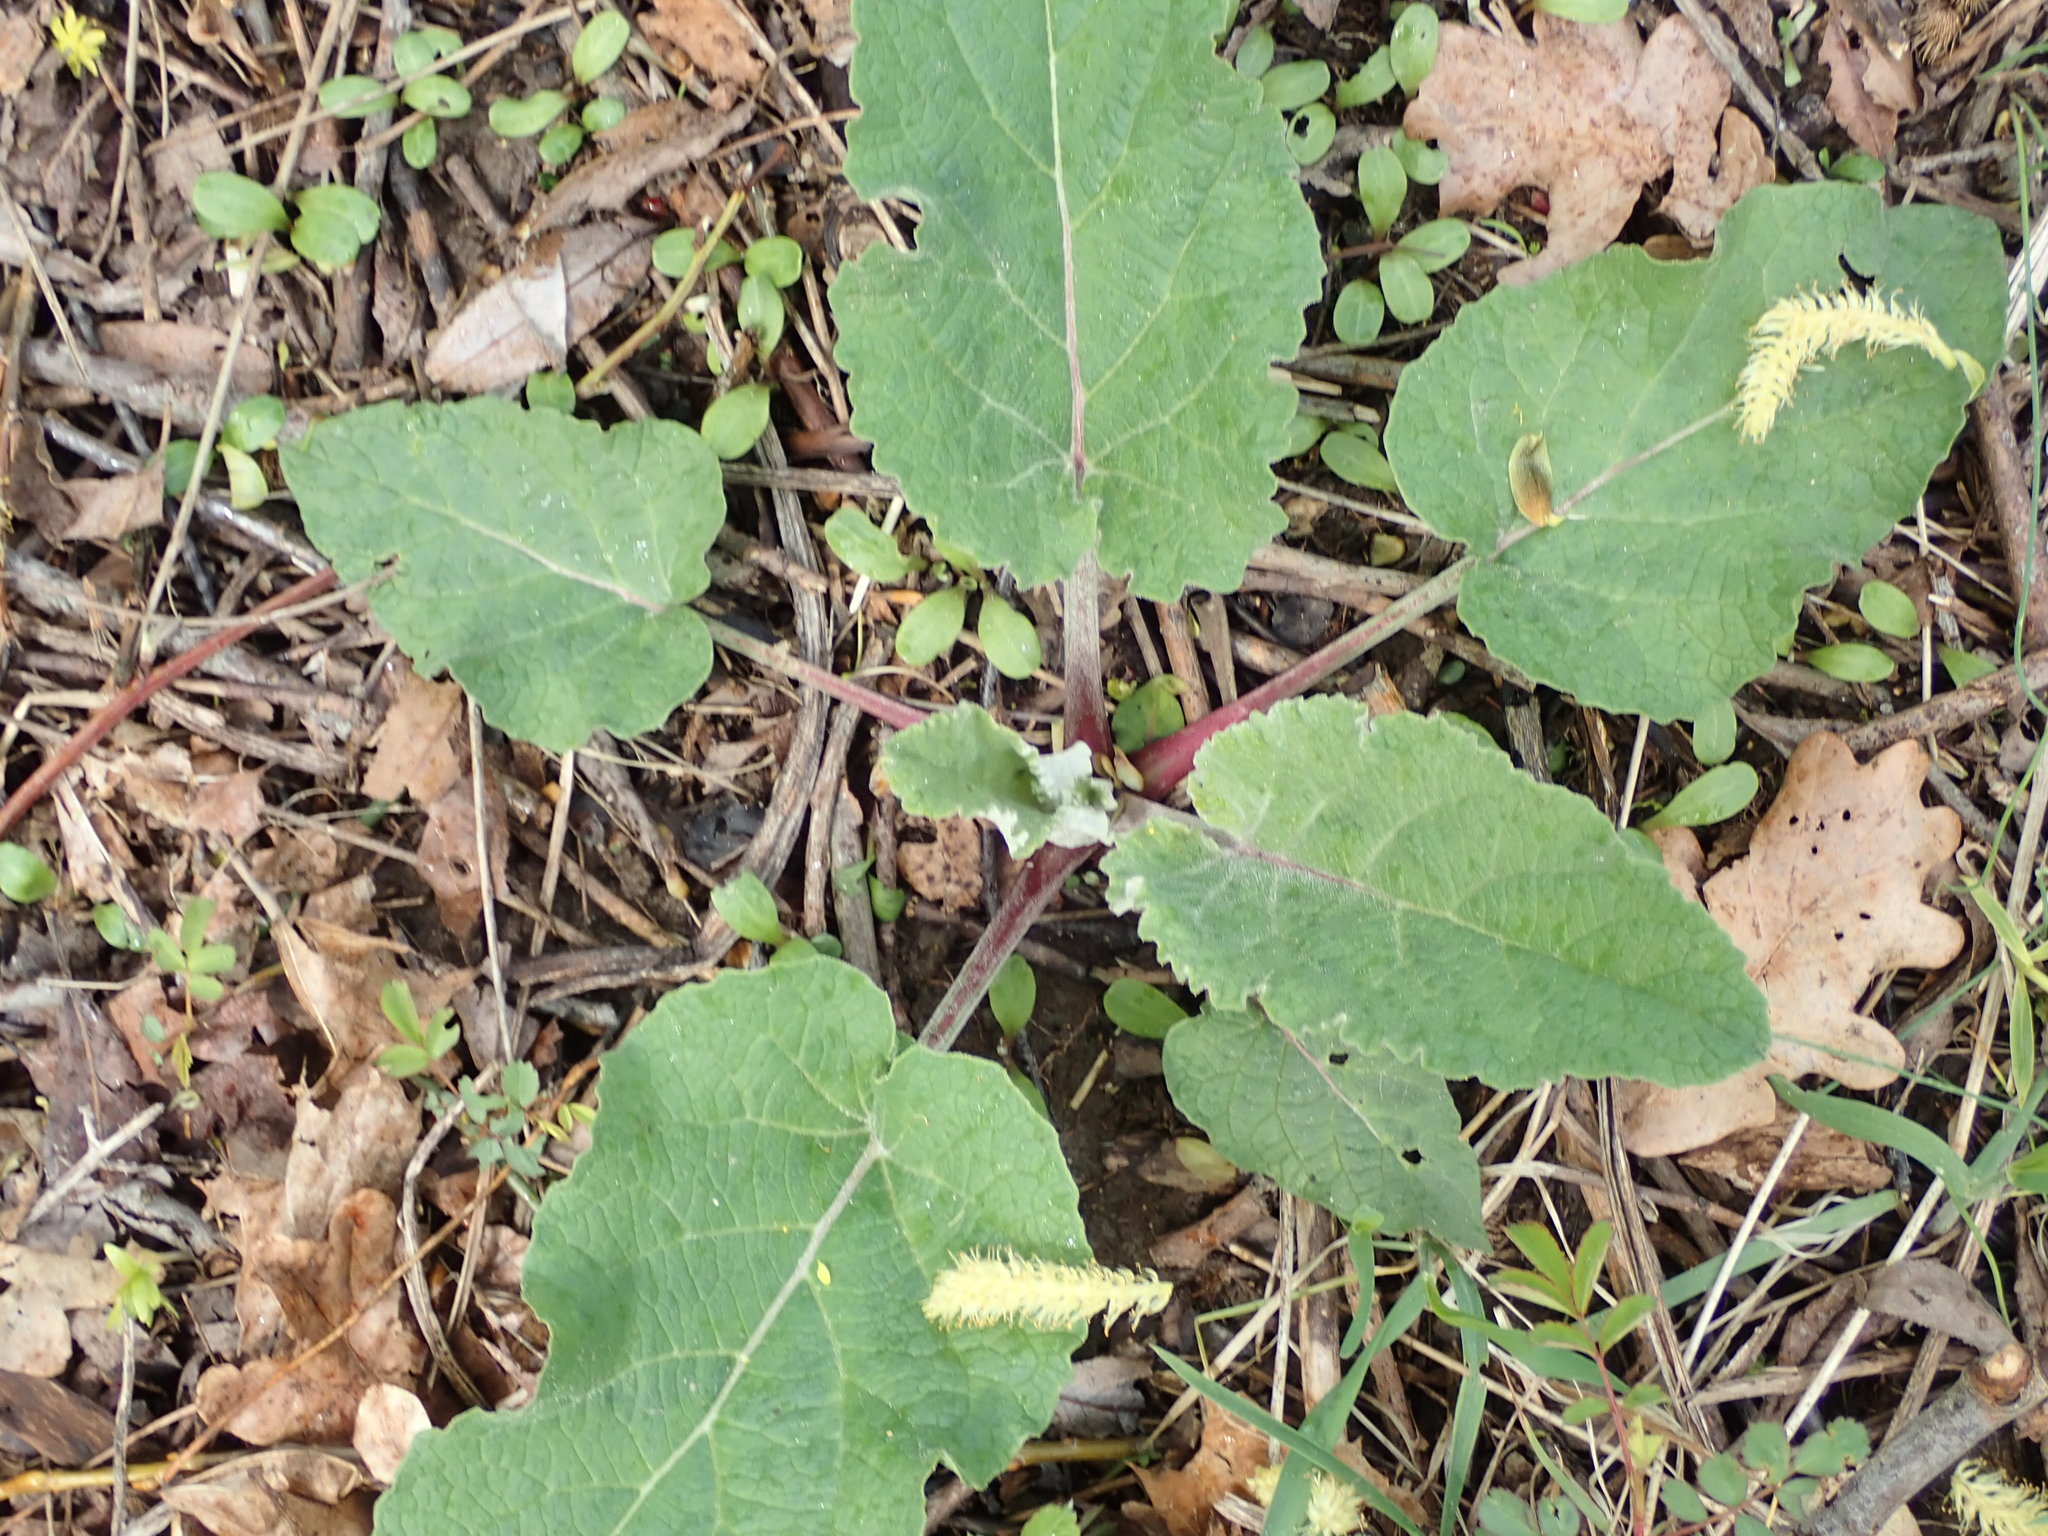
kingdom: Plantae
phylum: Tracheophyta
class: Magnoliopsida
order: Asterales
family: Asteraceae
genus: Arctium
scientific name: Arctium
